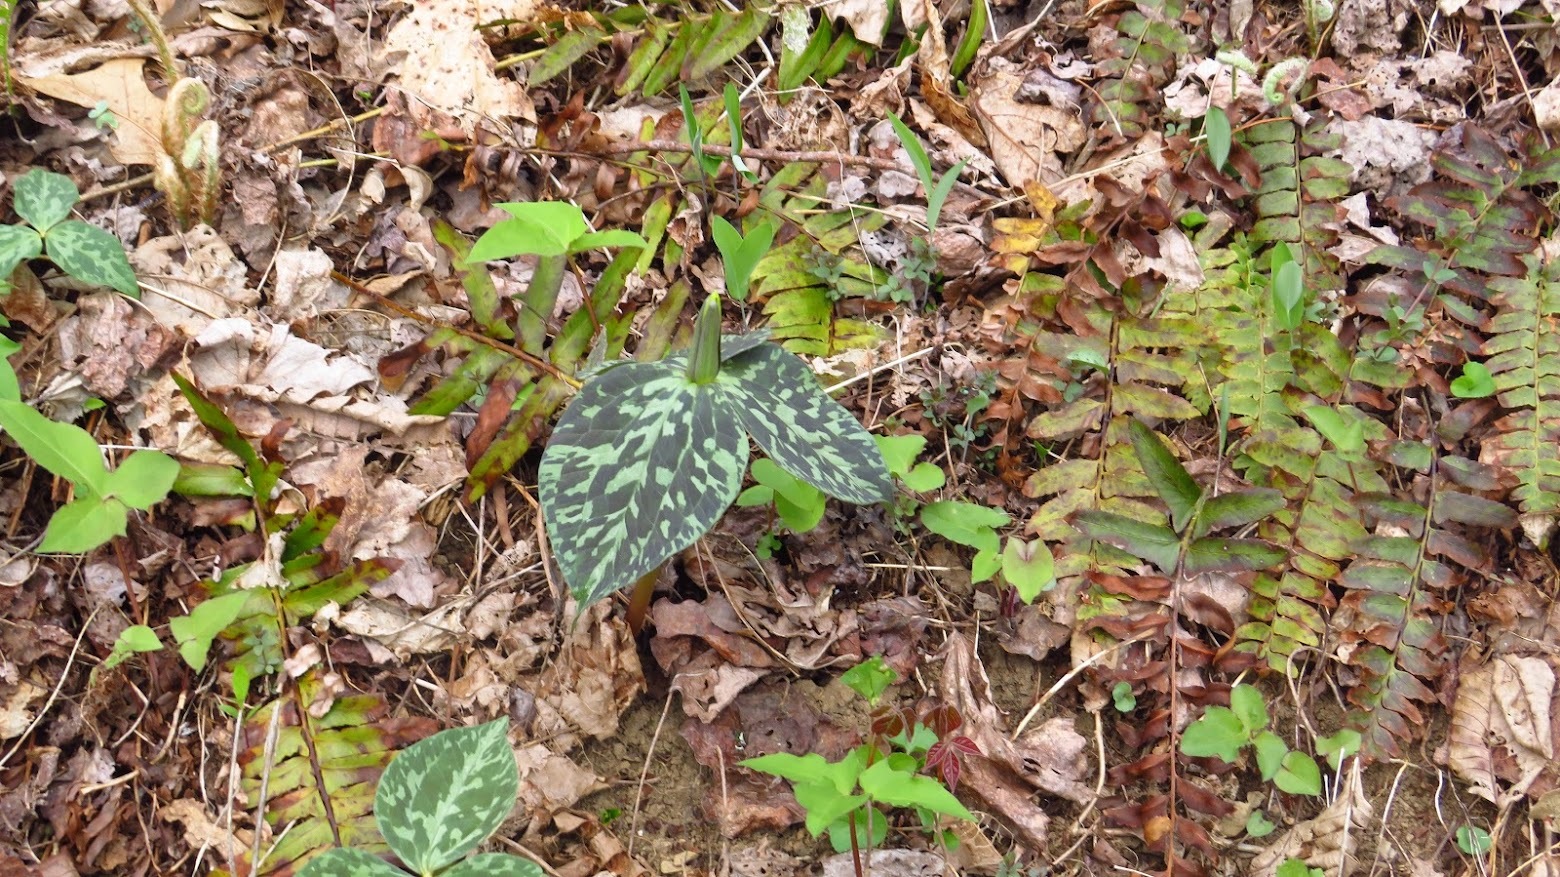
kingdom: Plantae
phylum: Tracheophyta
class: Liliopsida
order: Liliales
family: Melanthiaceae
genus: Trillium
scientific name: Trillium cuneatum
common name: Cuneate trillium
